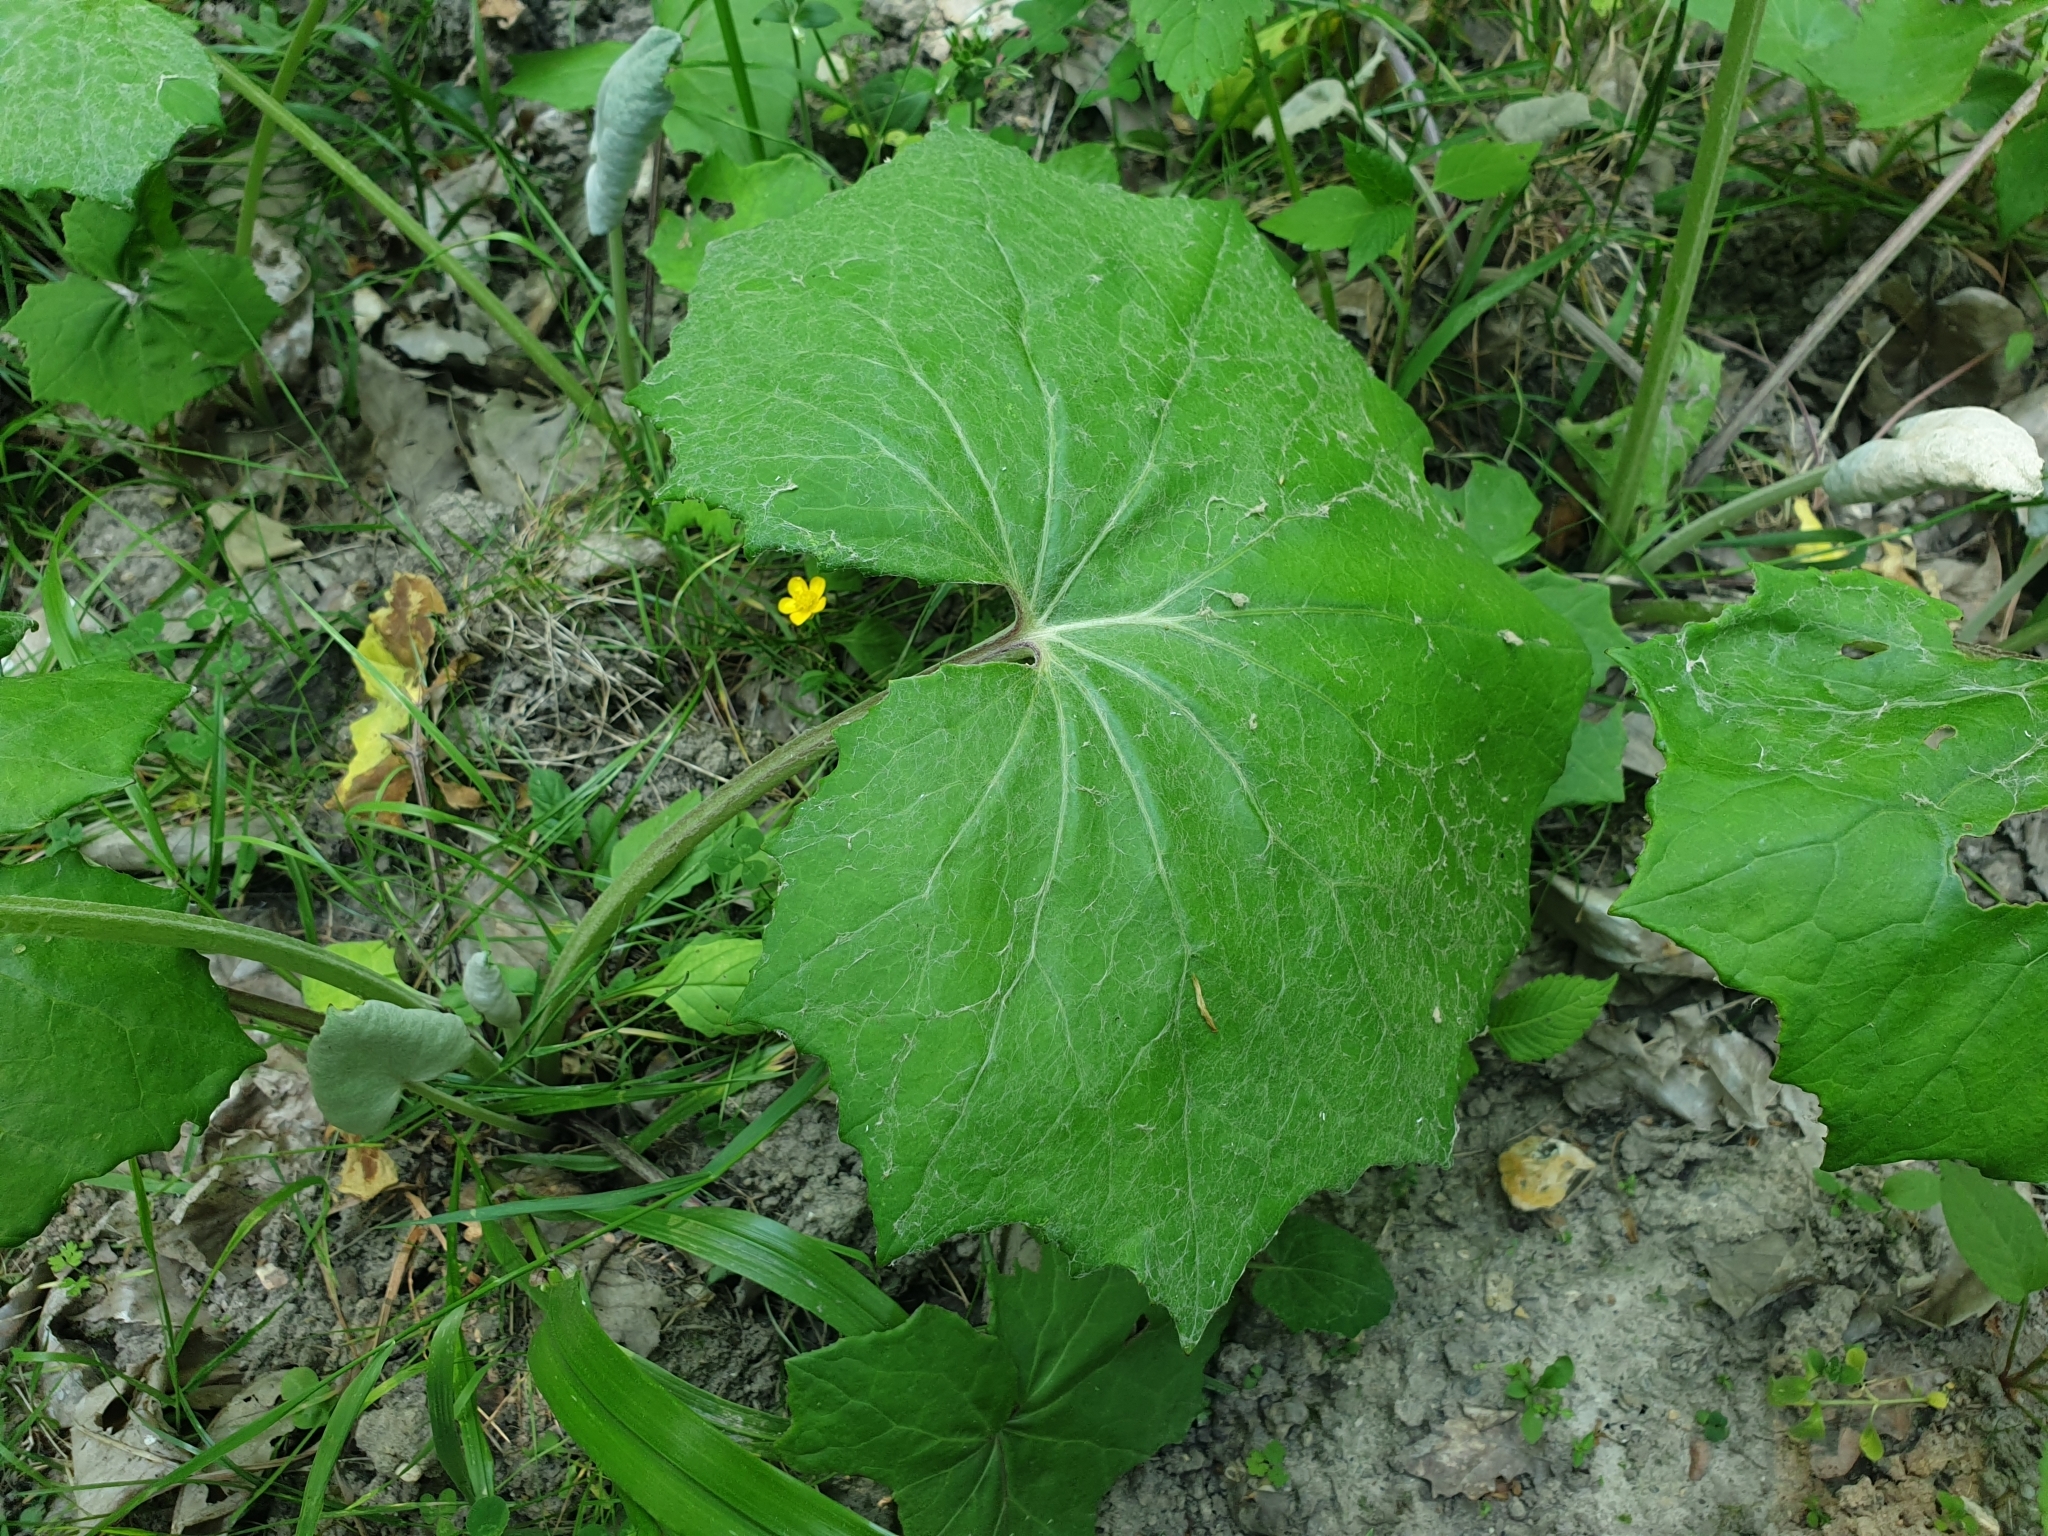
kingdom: Plantae
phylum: Tracheophyta
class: Magnoliopsida
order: Asterales
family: Asteraceae
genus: Tussilago
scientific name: Tussilago farfara
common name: Coltsfoot
